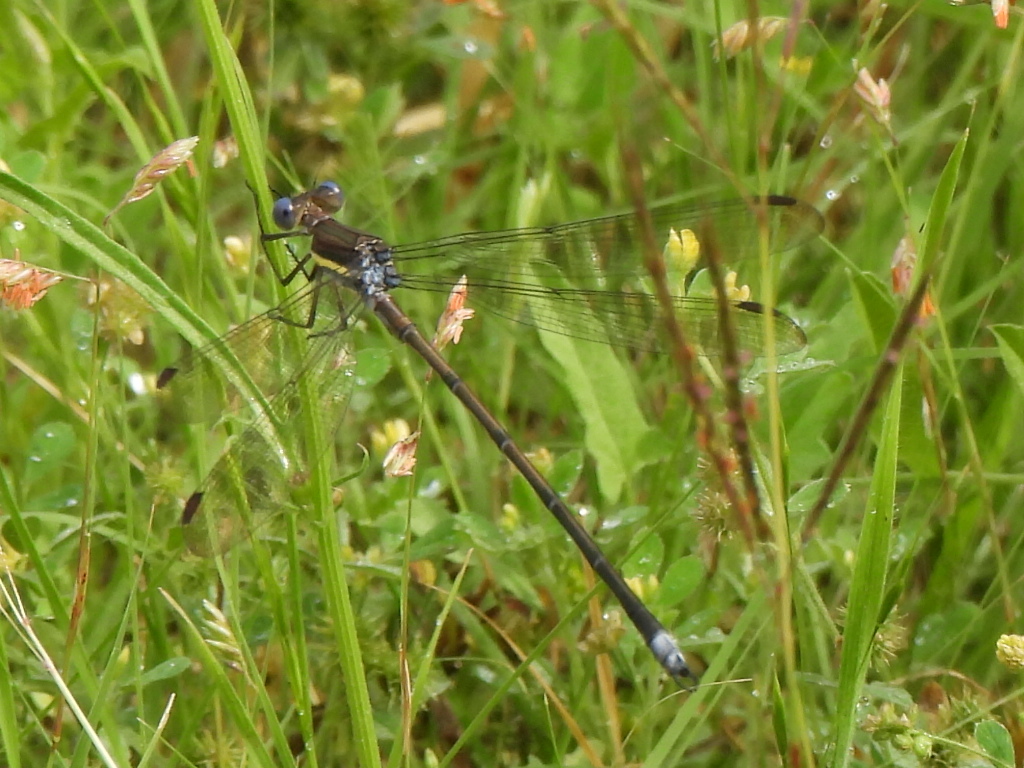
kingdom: Animalia
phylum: Arthropoda
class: Insecta
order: Odonata
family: Lestidae
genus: Archilestes
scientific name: Archilestes grandis
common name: Great spreadwing
